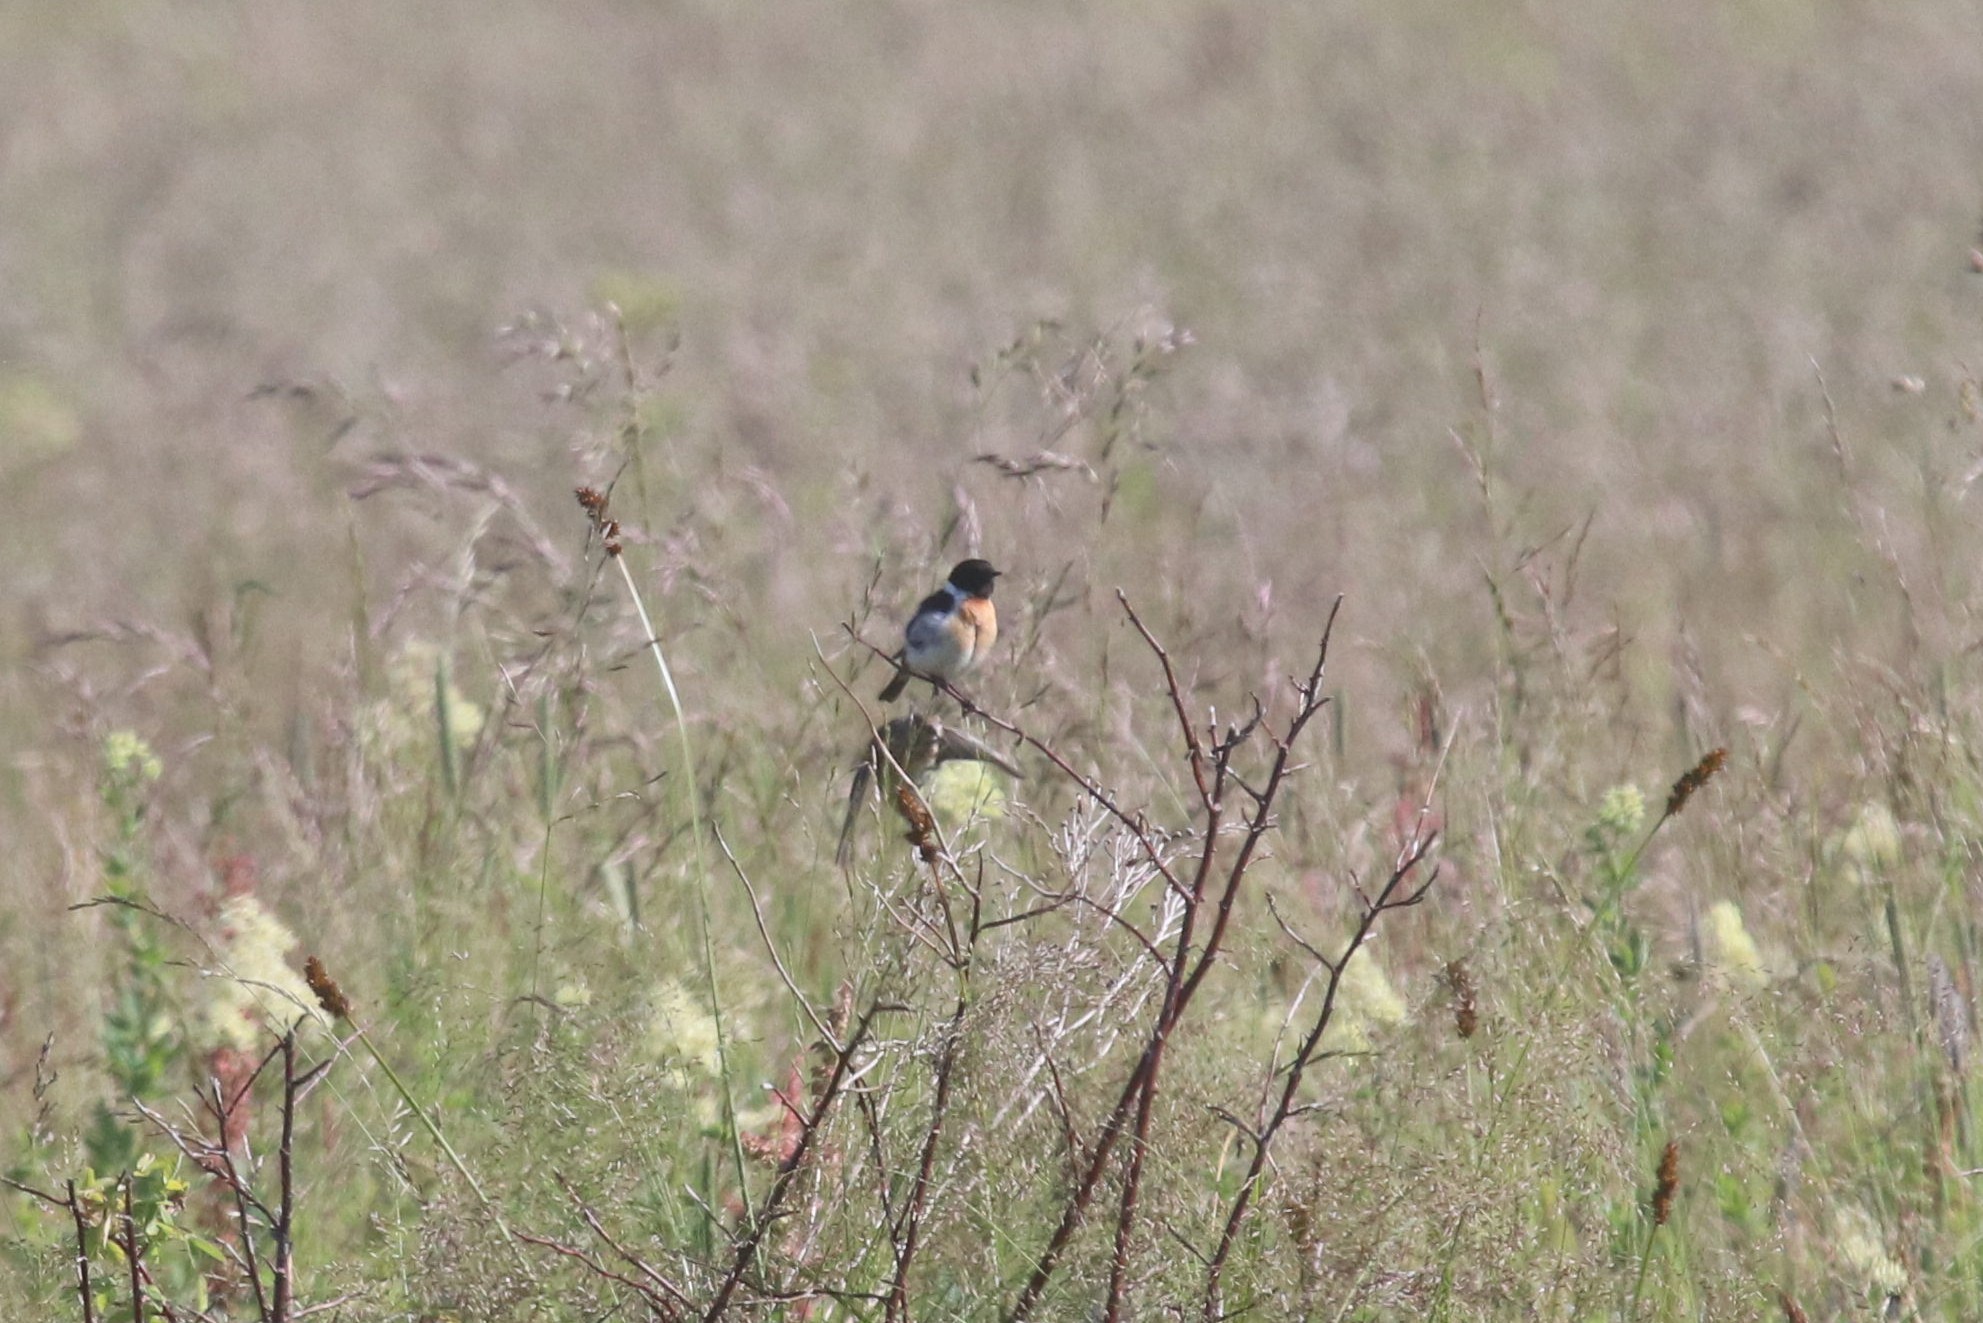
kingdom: Animalia
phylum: Chordata
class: Aves
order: Passeriformes
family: Muscicapidae
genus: Saxicola
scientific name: Saxicola maurus
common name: Siberian stonechat
